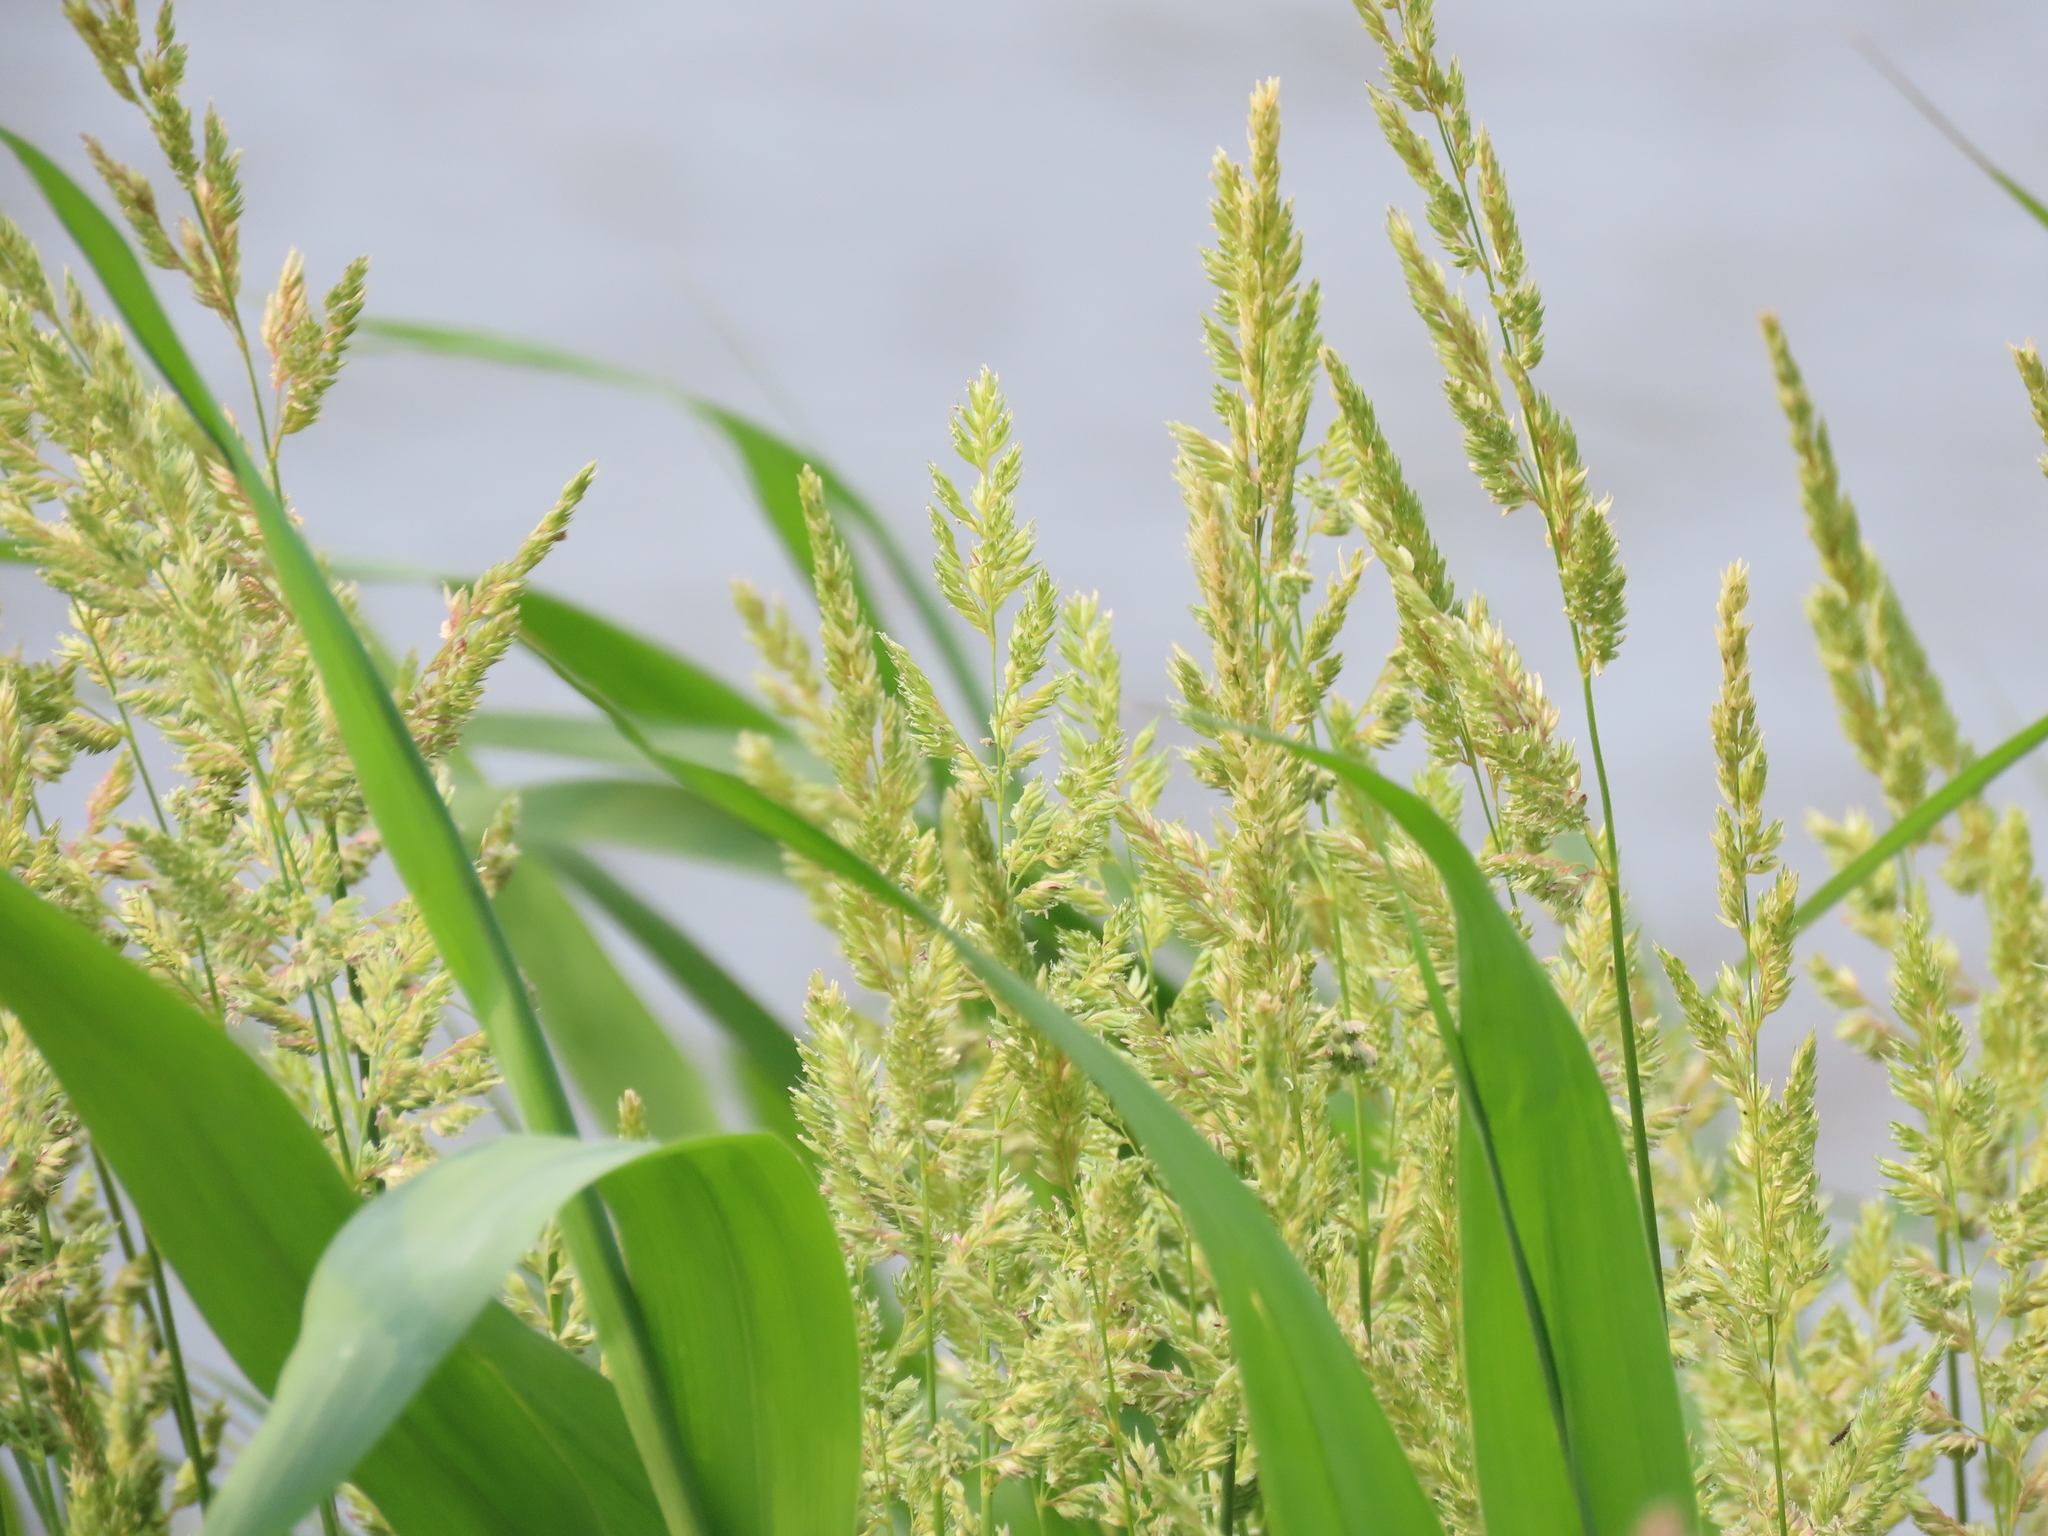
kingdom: Plantae
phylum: Tracheophyta
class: Liliopsida
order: Poales
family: Poaceae
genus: Phalaris
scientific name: Phalaris arundinacea
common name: Reed canary-grass
